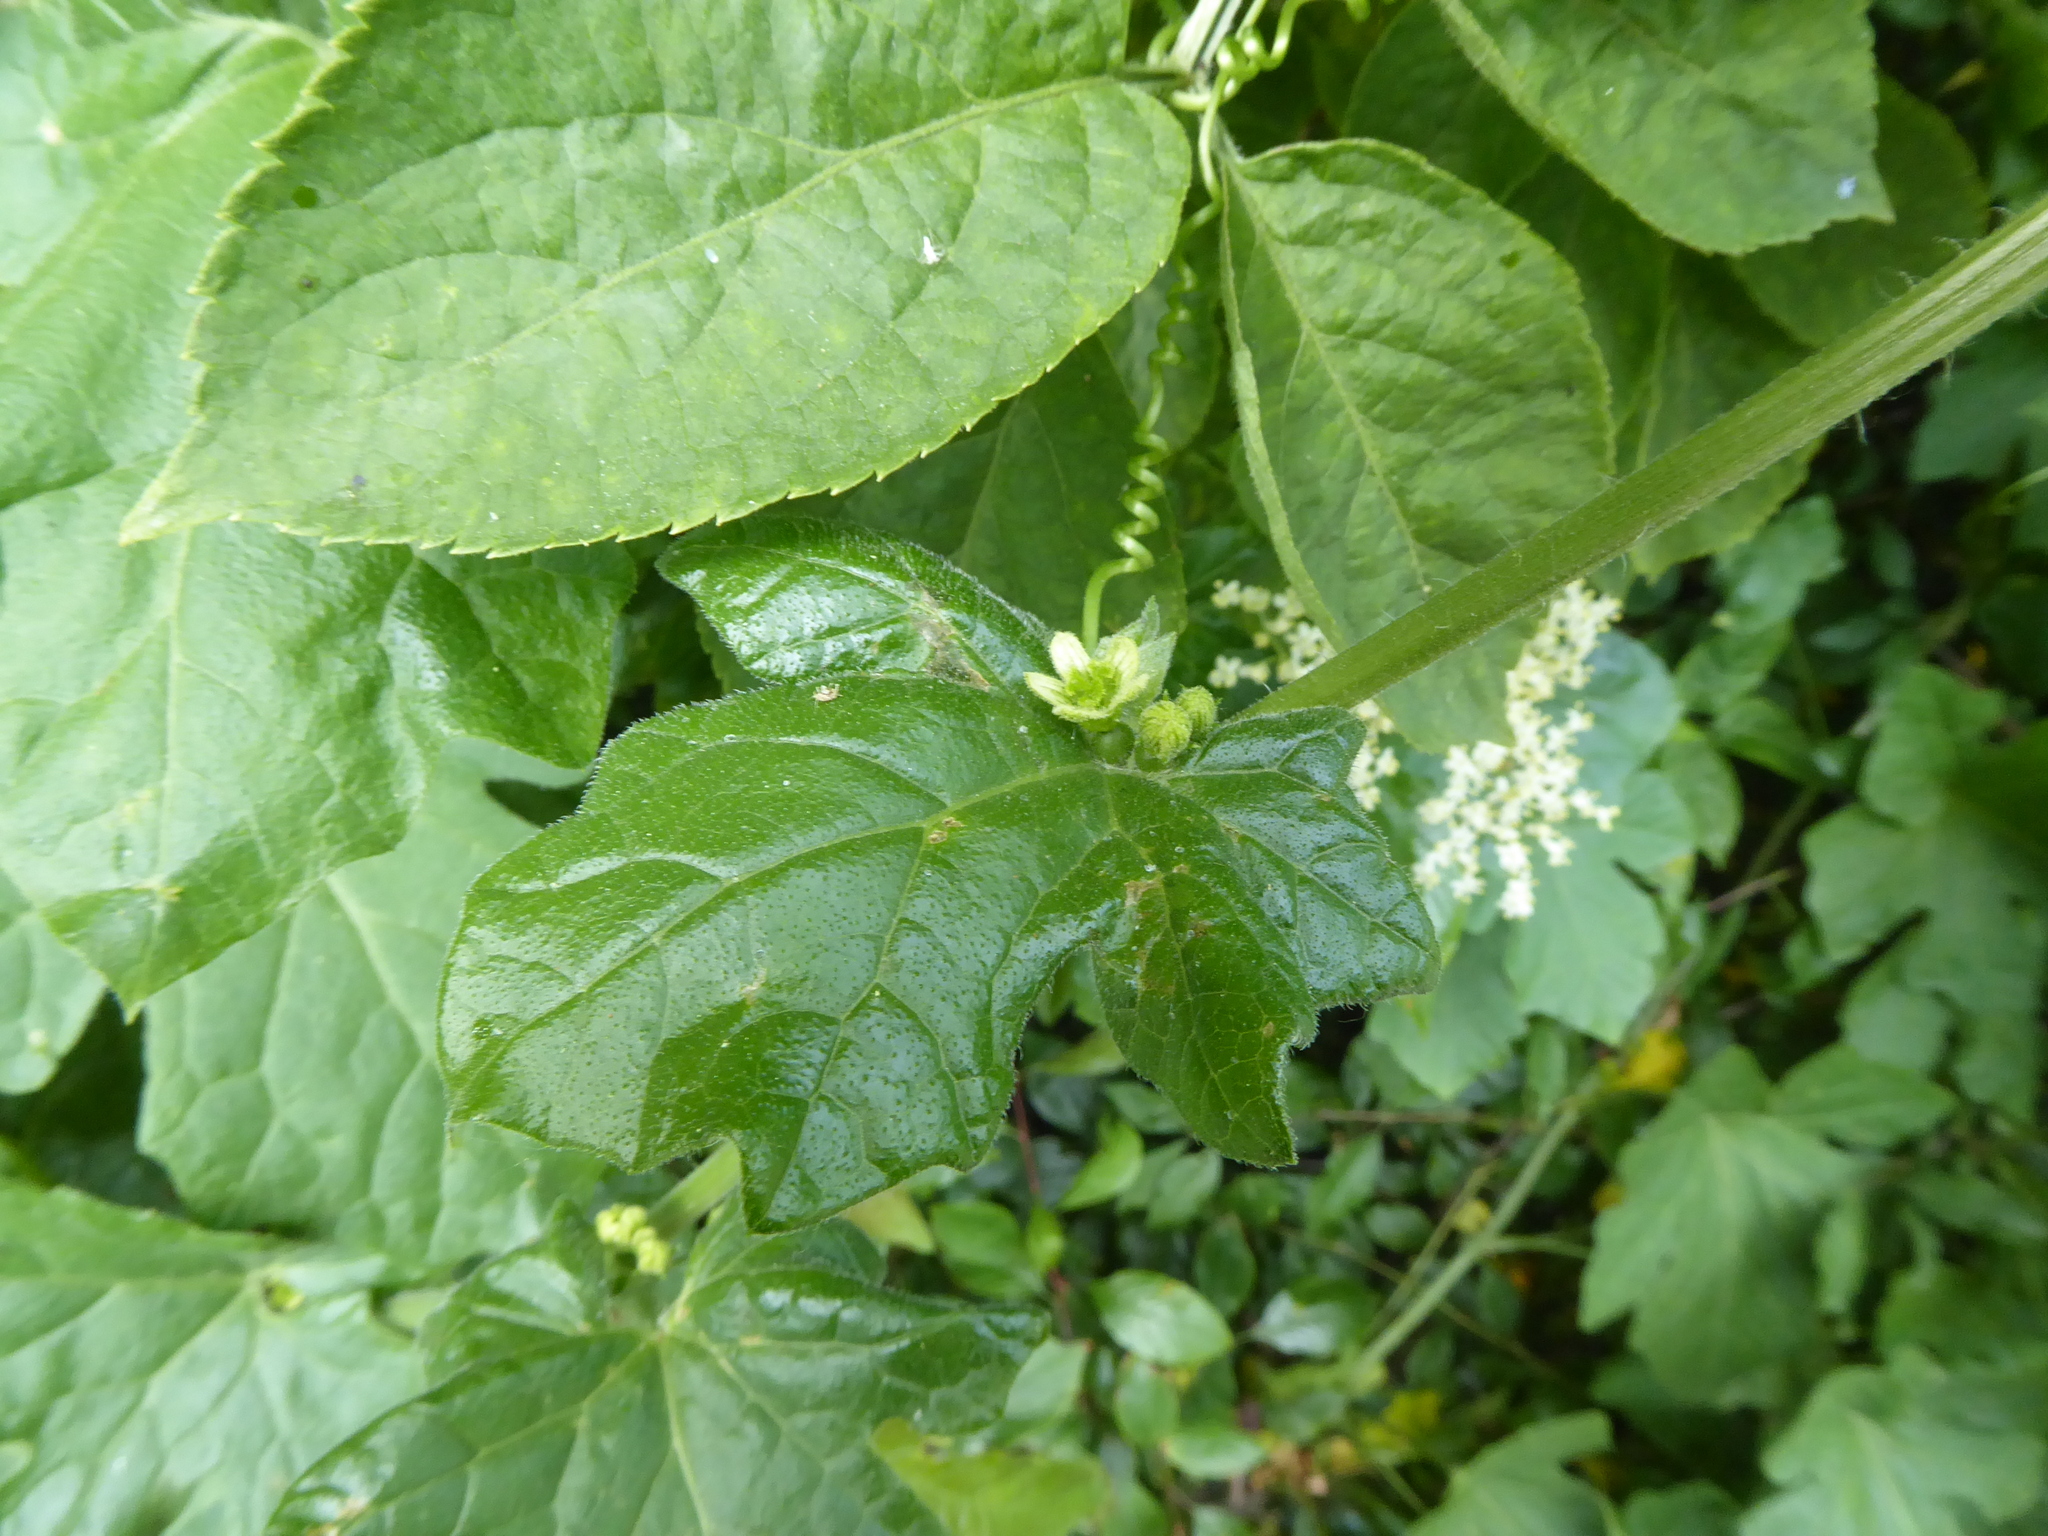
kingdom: Plantae
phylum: Tracheophyta
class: Magnoliopsida
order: Cucurbitales
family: Cucurbitaceae
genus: Bryonia
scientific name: Bryonia cretica
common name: Cretan bryony
